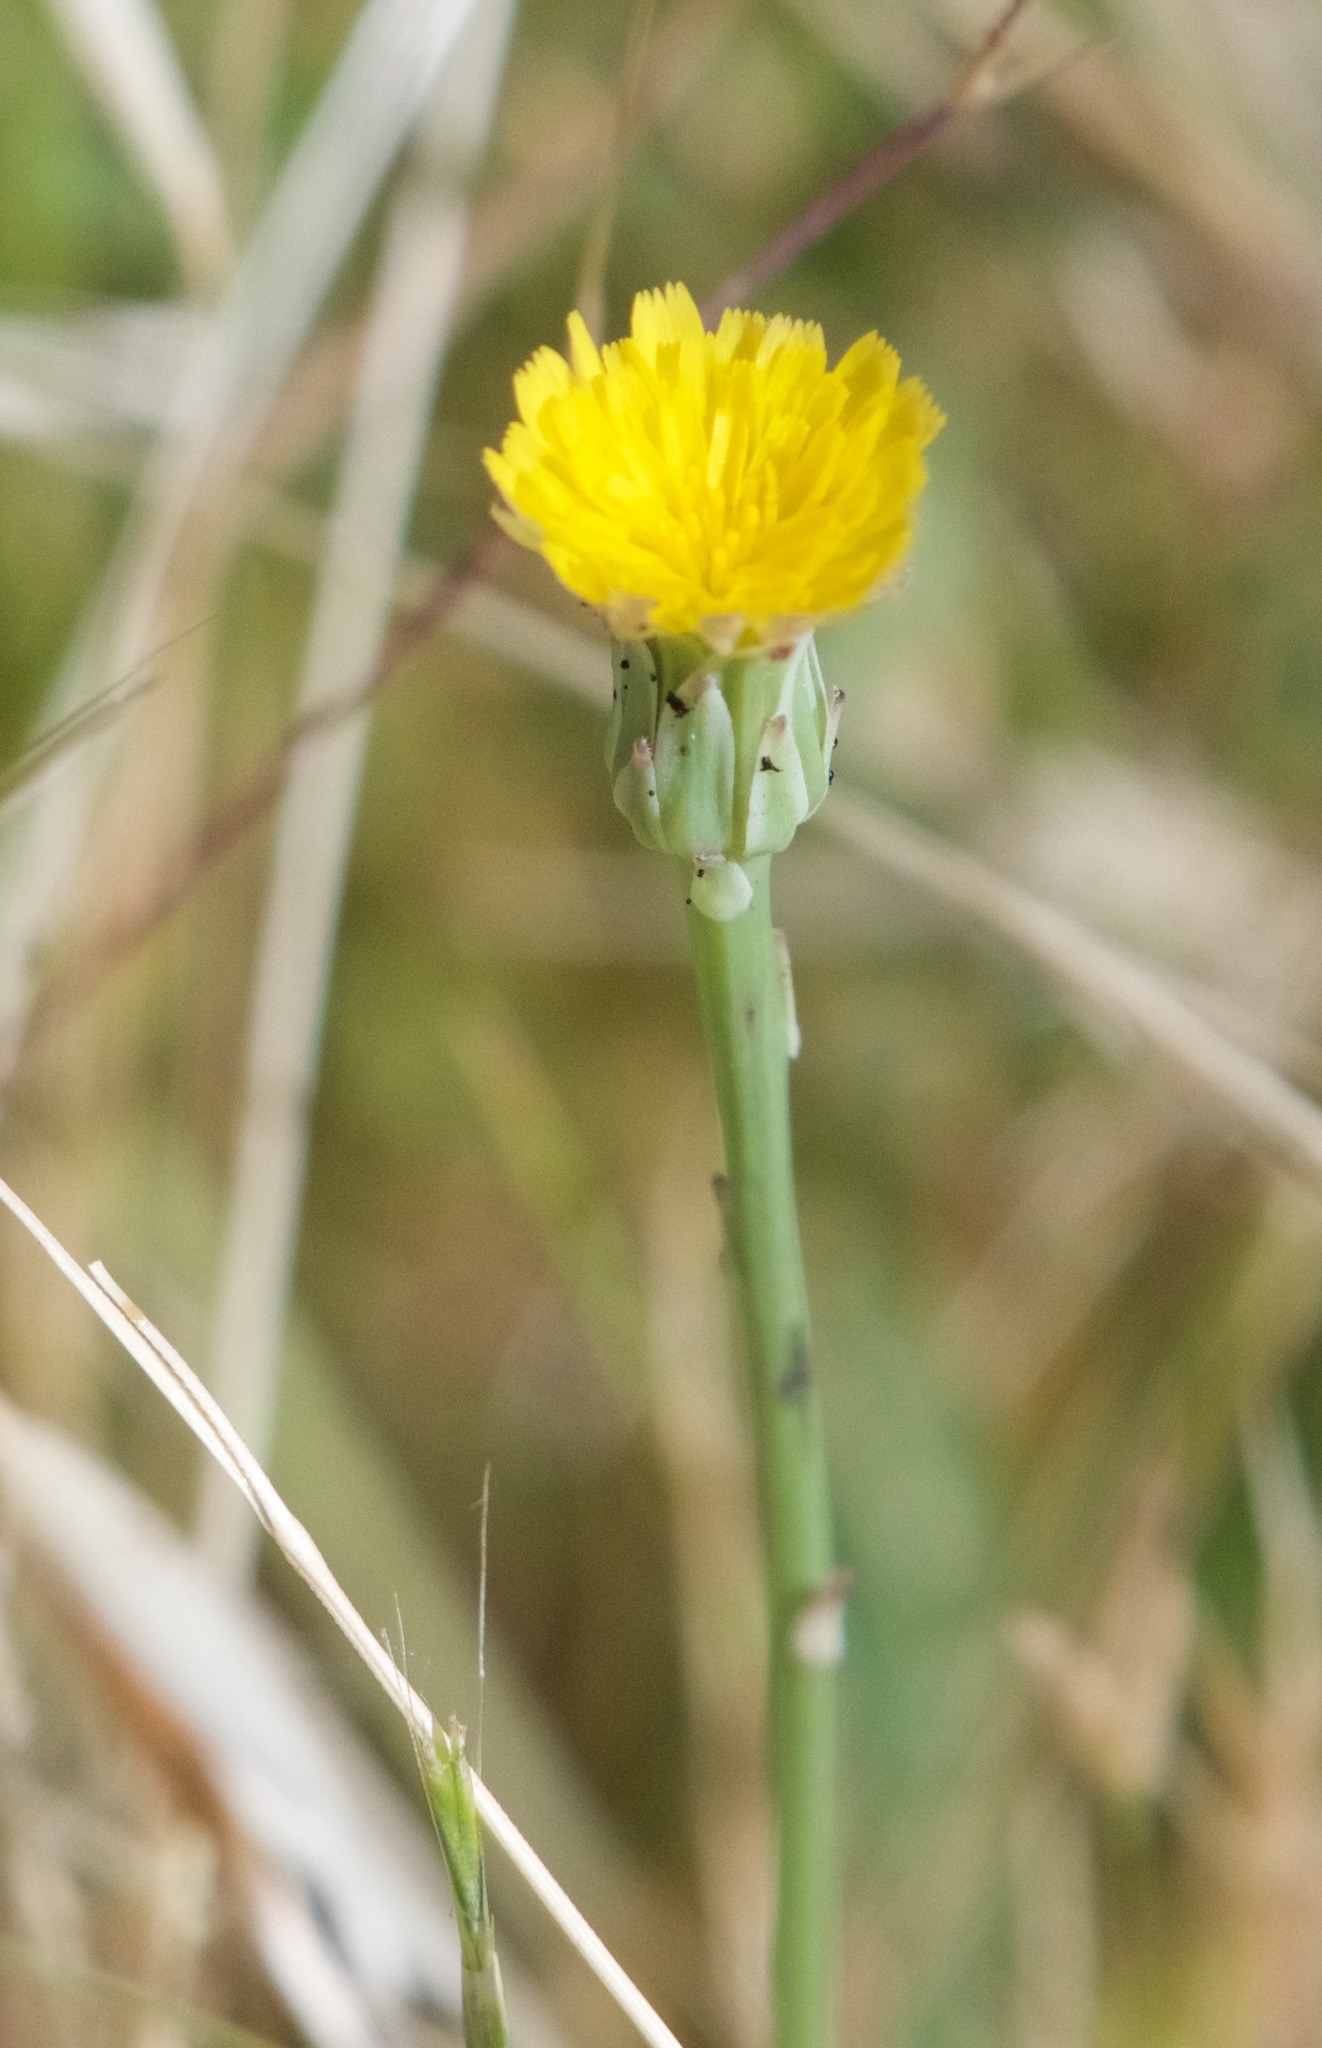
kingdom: Plantae
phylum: Tracheophyta
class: Magnoliopsida
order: Asterales
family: Asteraceae
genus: Hypochaeris
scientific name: Hypochaeris glabra
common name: Smooth catsear
